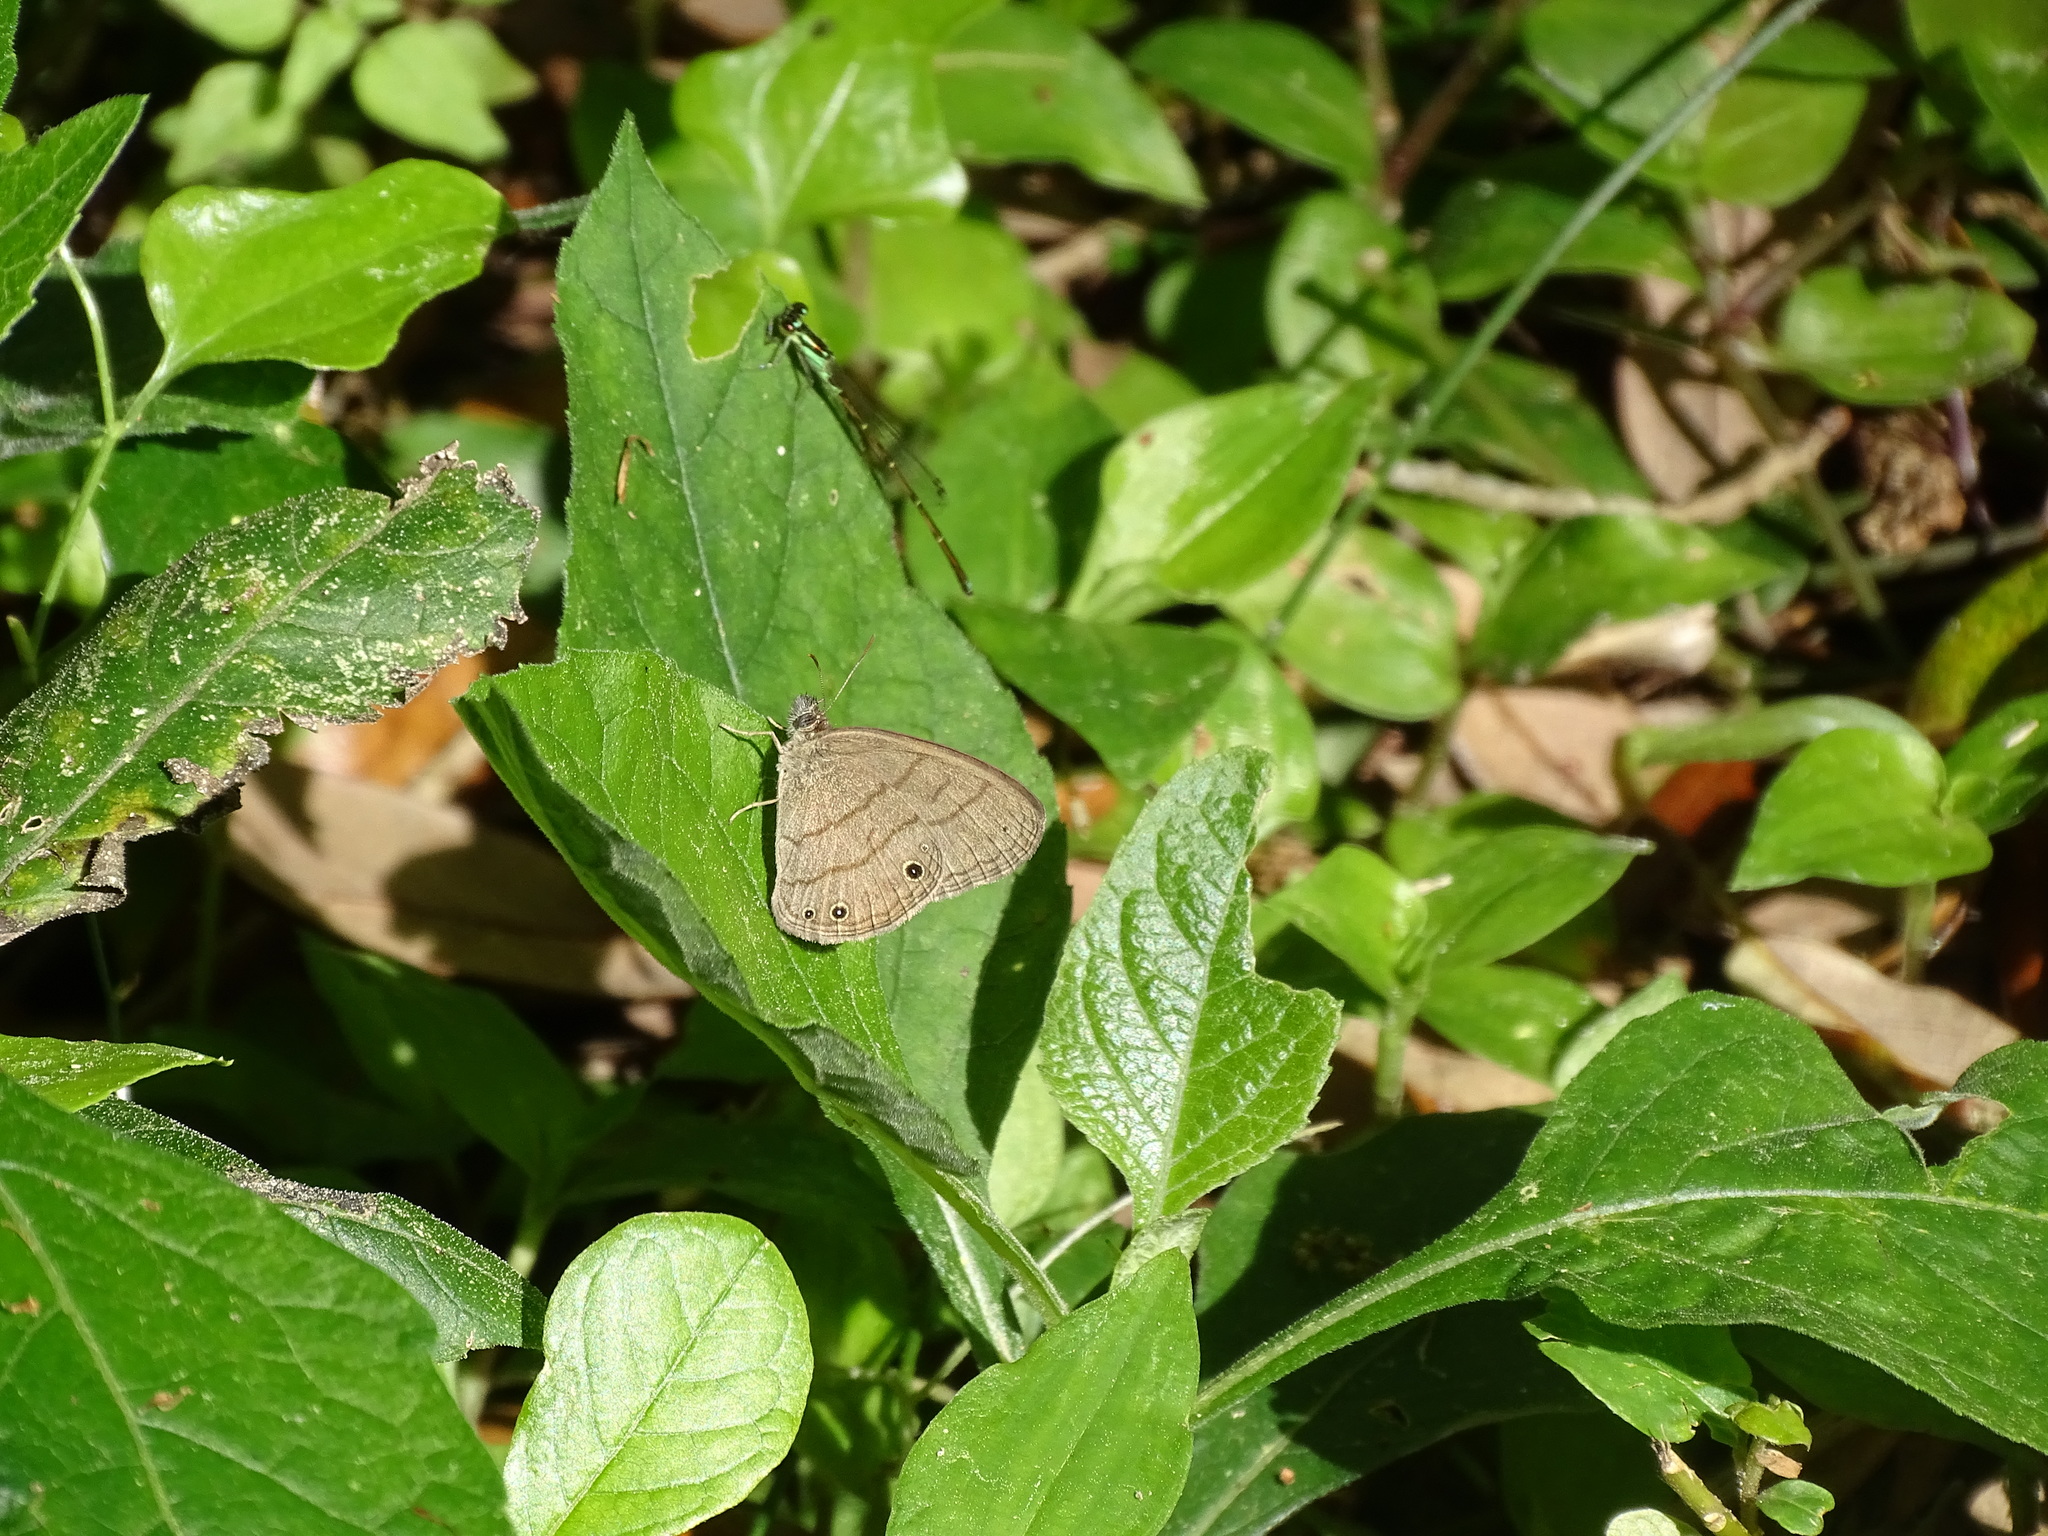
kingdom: Animalia
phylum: Arthropoda
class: Insecta
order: Lepidoptera
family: Nymphalidae
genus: Hermeuptychia
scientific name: Hermeuptychia intricata
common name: Intricate satyr
